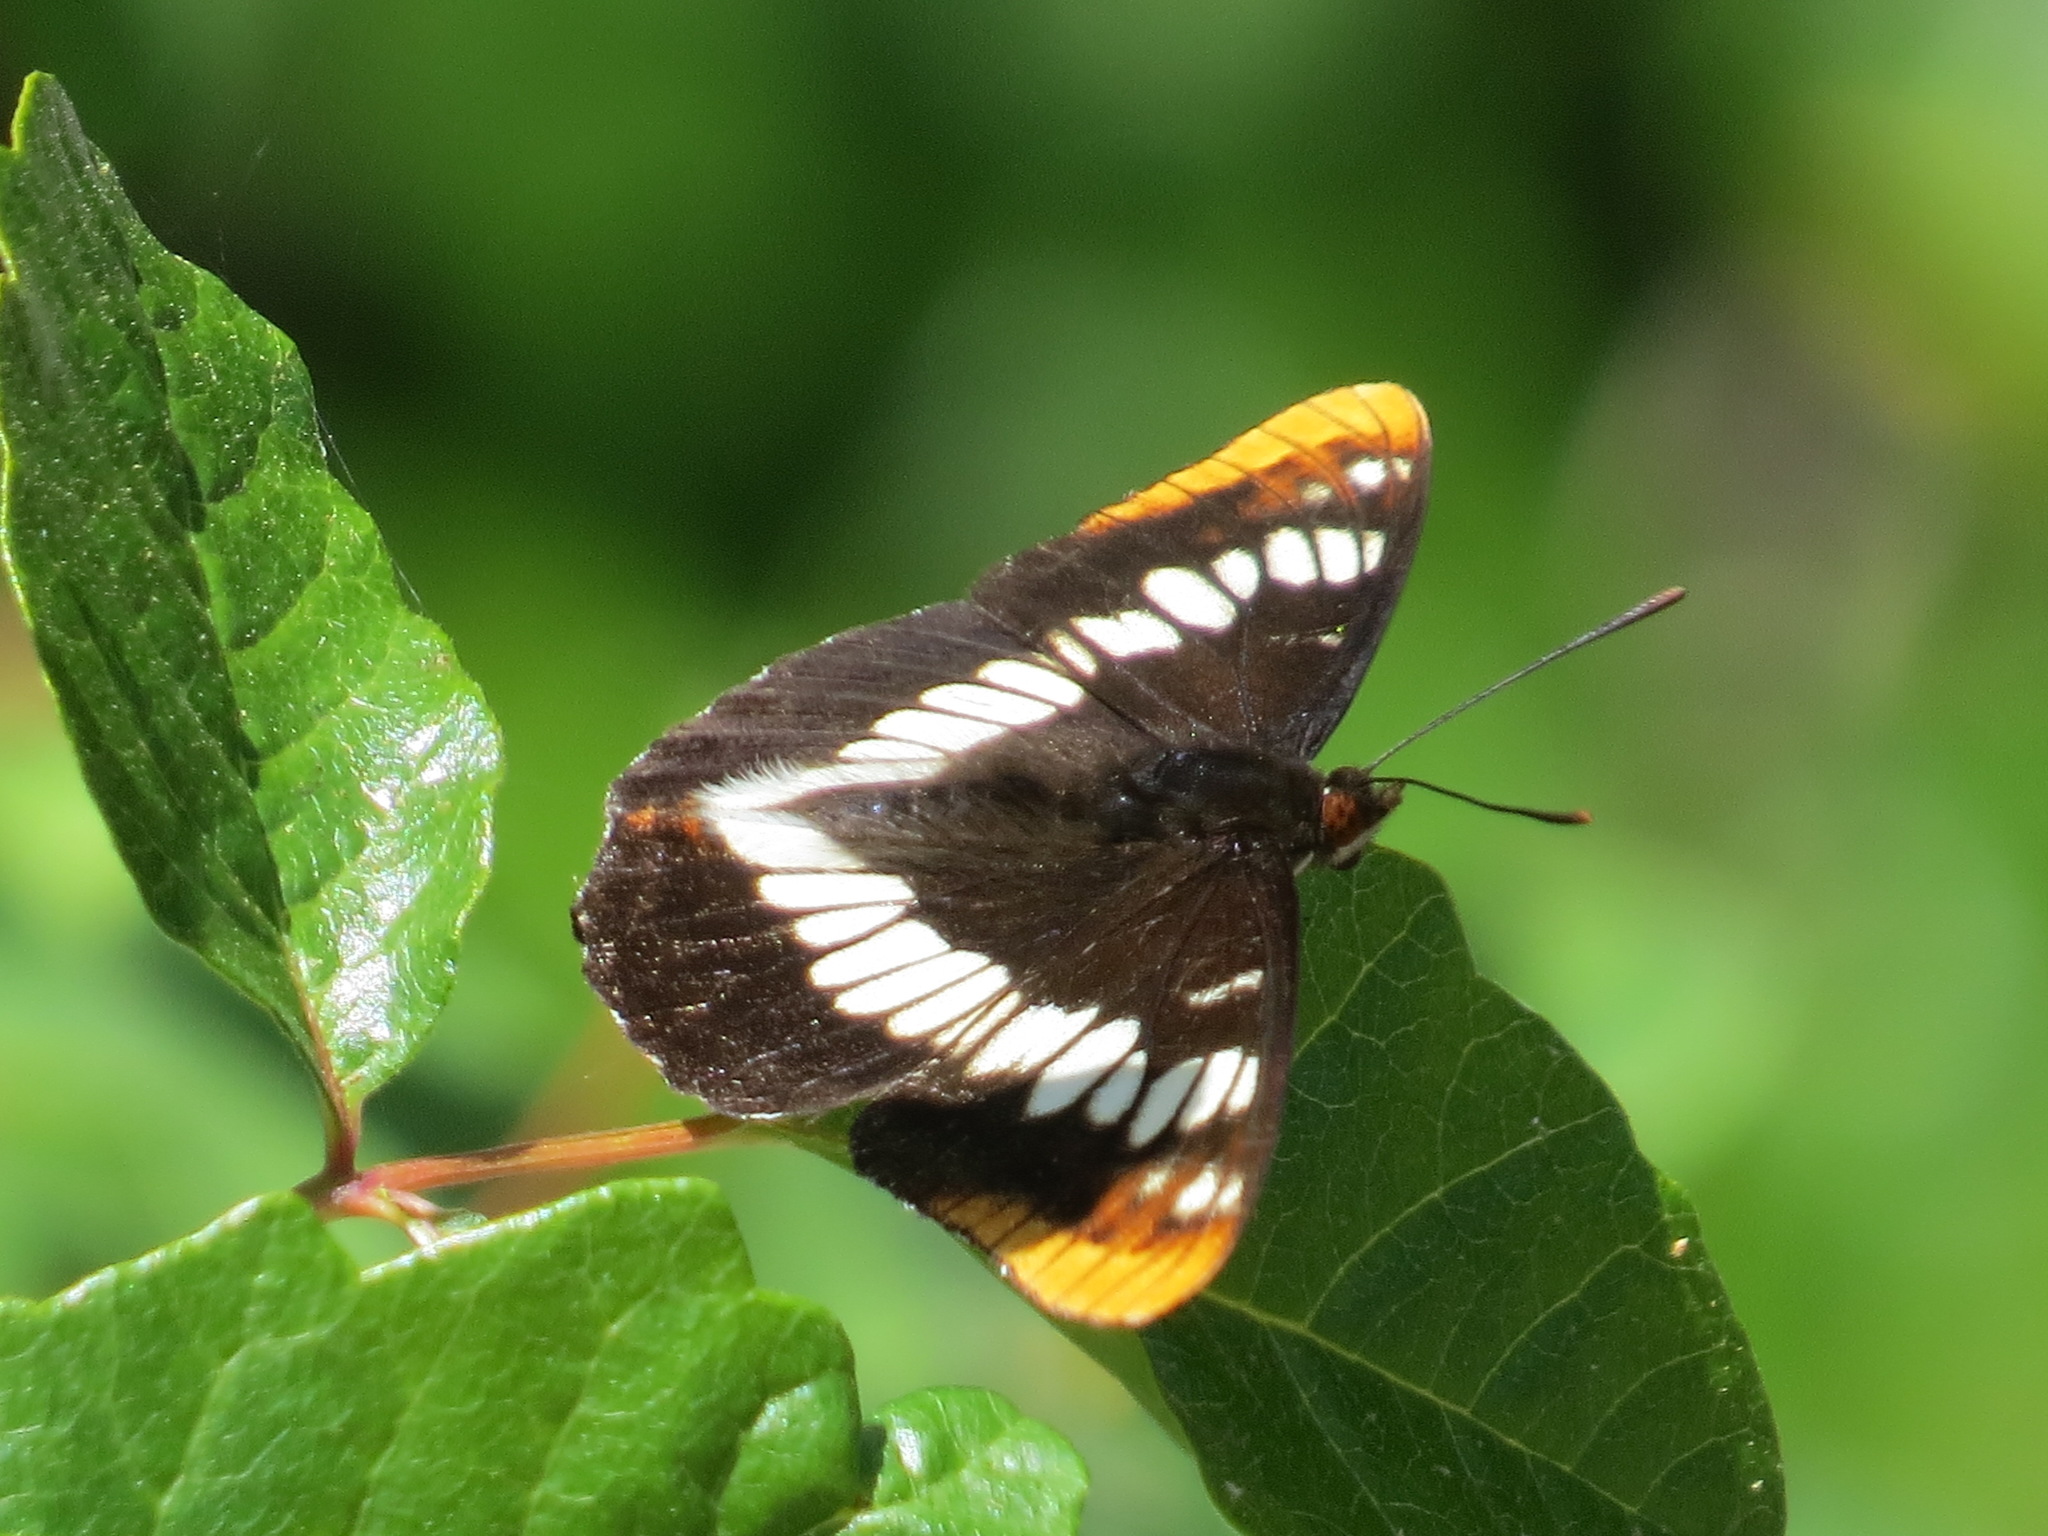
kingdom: Animalia
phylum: Arthropoda
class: Insecta
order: Lepidoptera
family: Nymphalidae
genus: Limenitis
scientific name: Limenitis lorquini
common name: Lorquin's admiral
